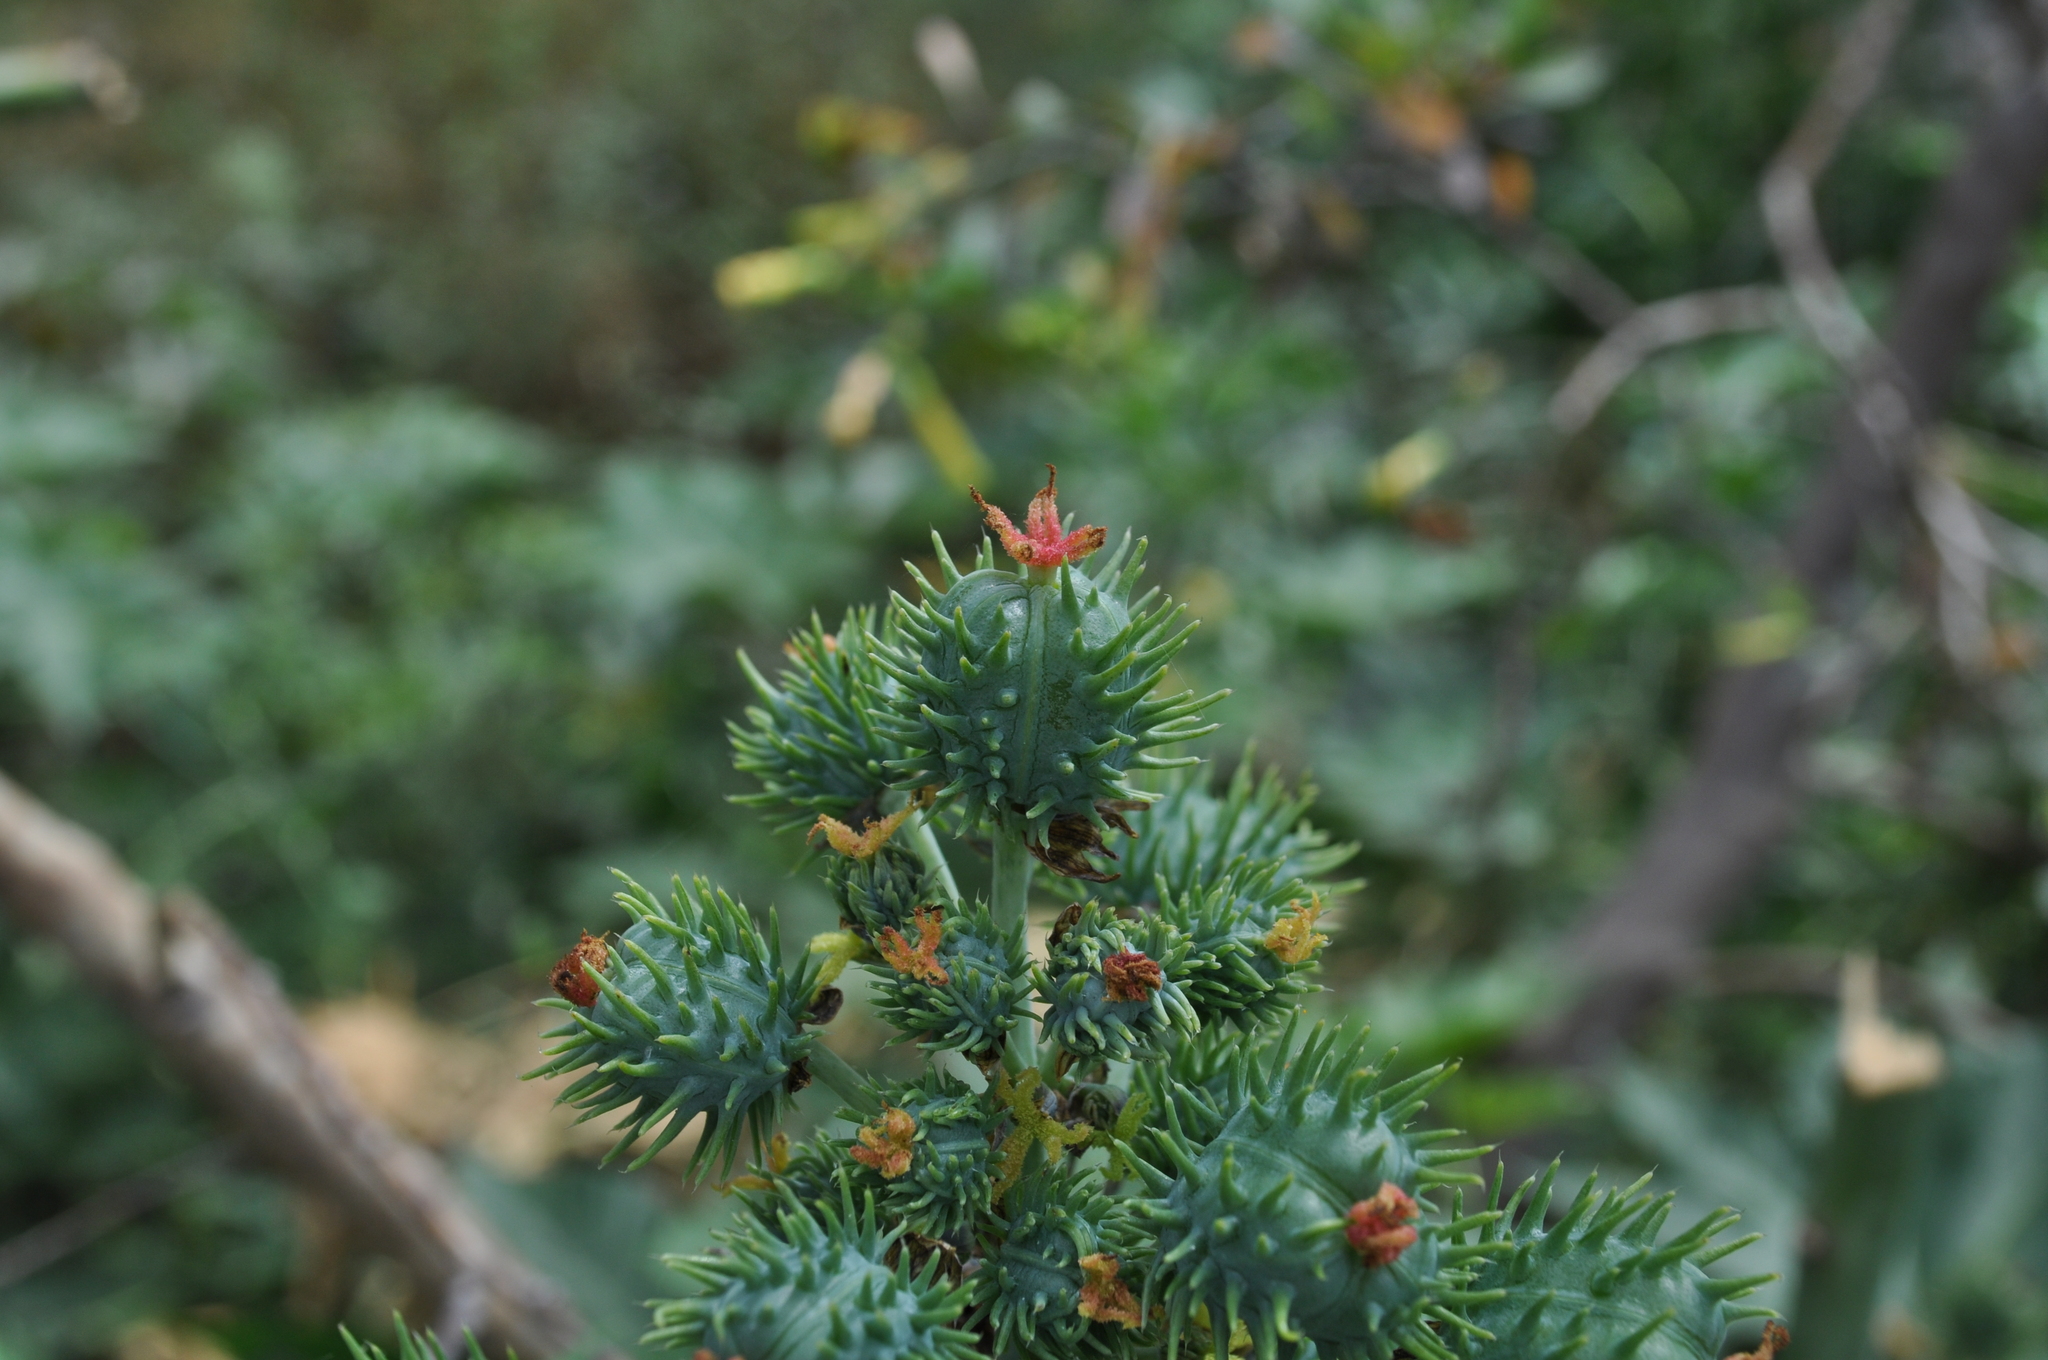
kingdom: Plantae
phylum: Tracheophyta
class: Magnoliopsida
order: Malpighiales
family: Euphorbiaceae
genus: Ricinus
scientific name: Ricinus communis
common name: Castor-oil-plant
